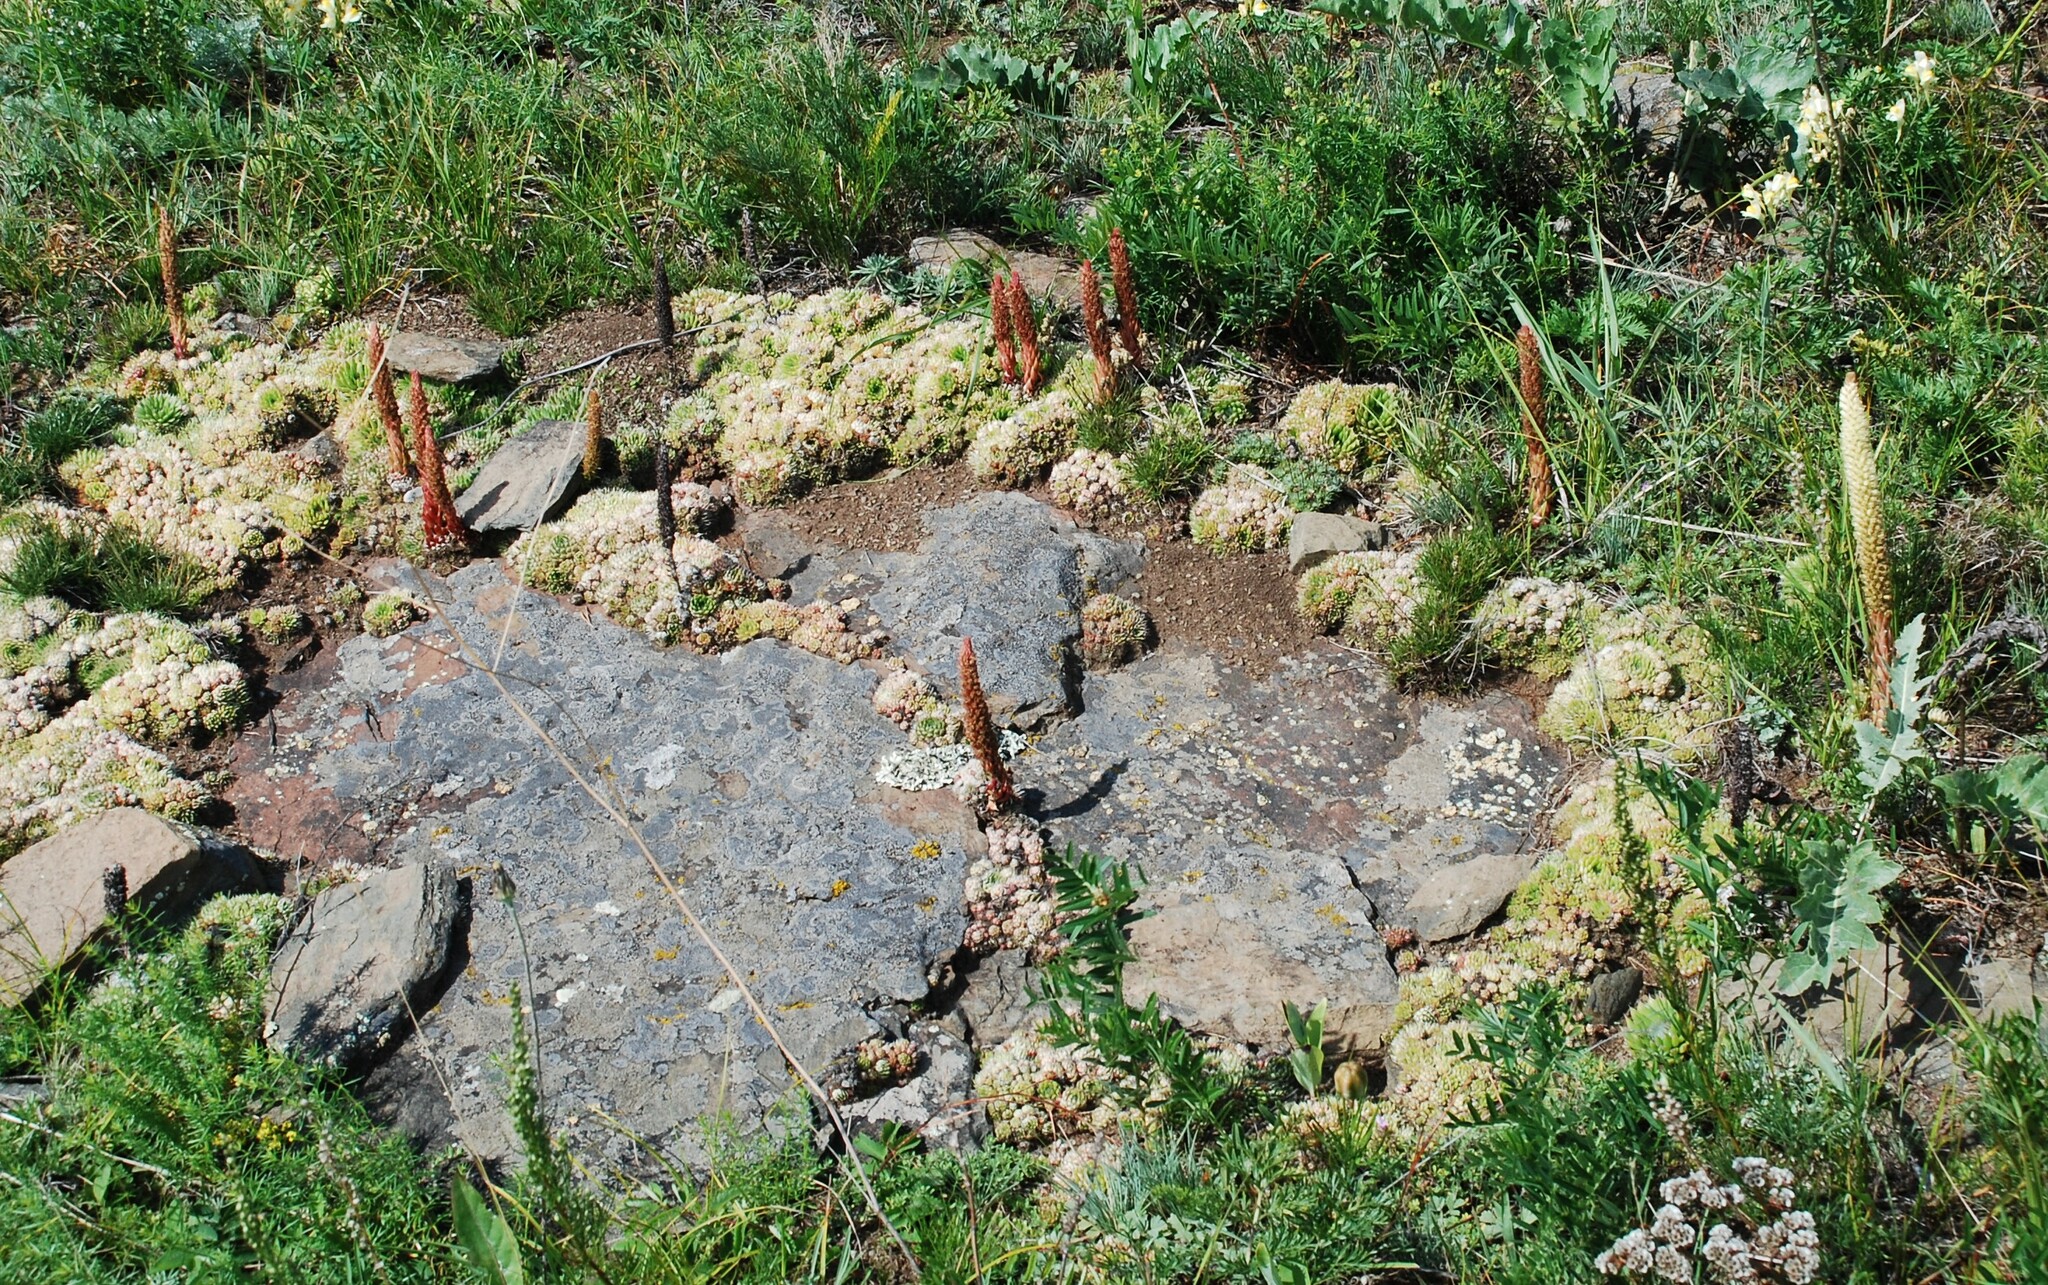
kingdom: Plantae
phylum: Tracheophyta
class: Magnoliopsida
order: Saxifragales
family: Crassulaceae
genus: Orostachys
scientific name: Orostachys spinosa
